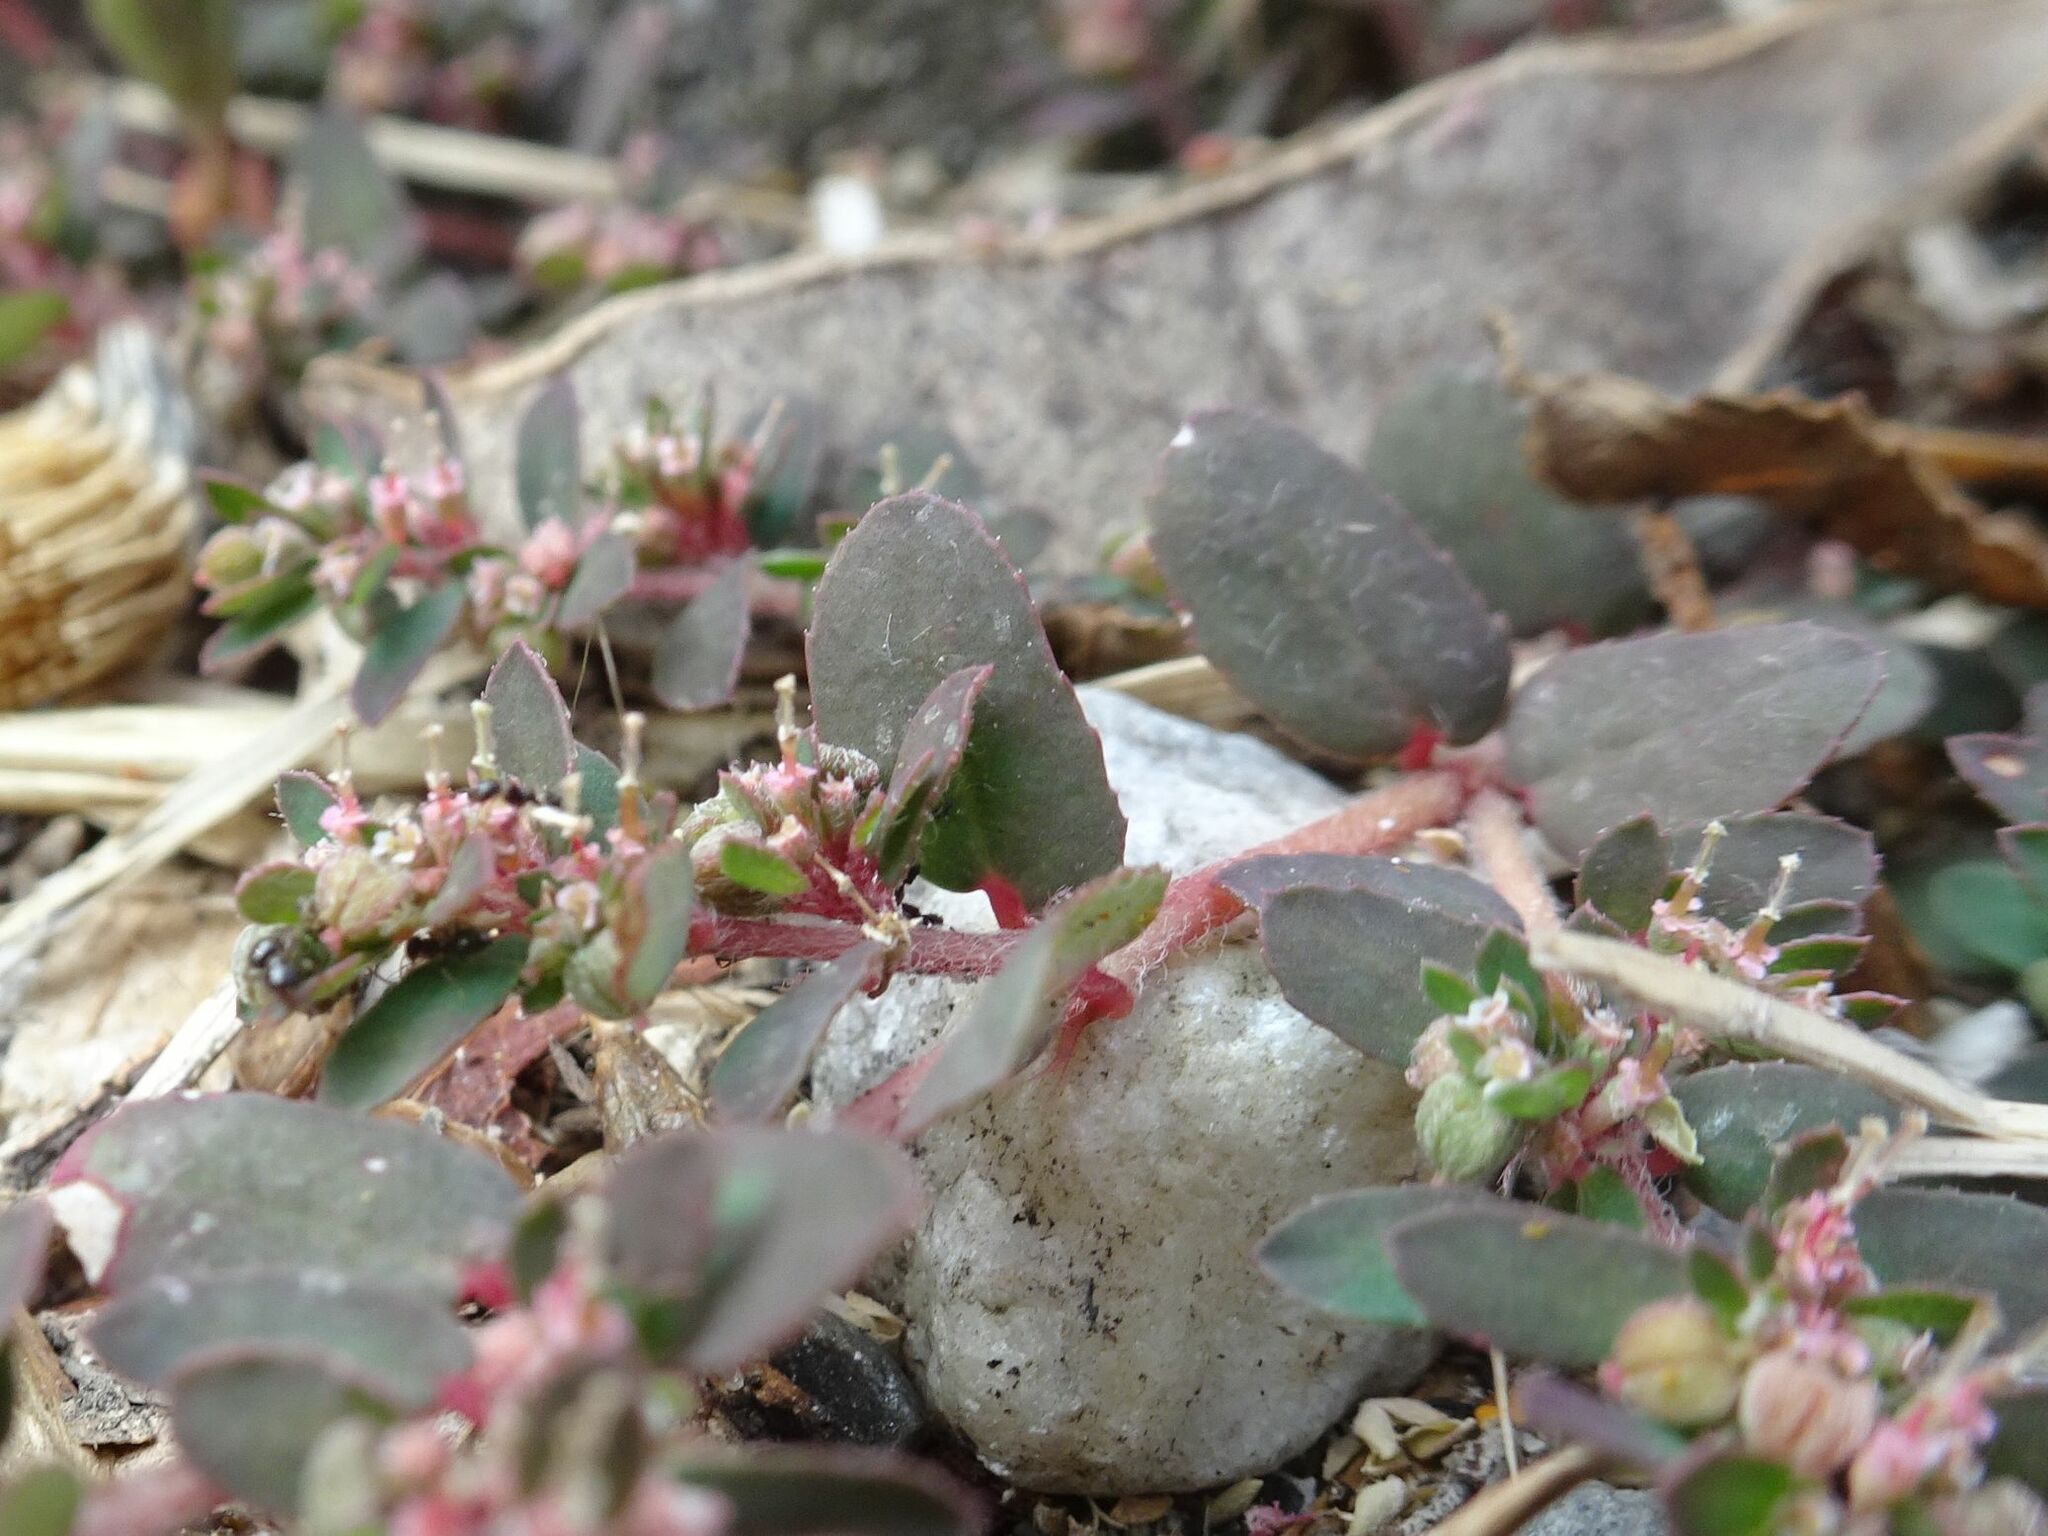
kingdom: Animalia
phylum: Arthropoda
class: Insecta
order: Hymenoptera
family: Formicidae
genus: Messor
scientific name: Messor structor
